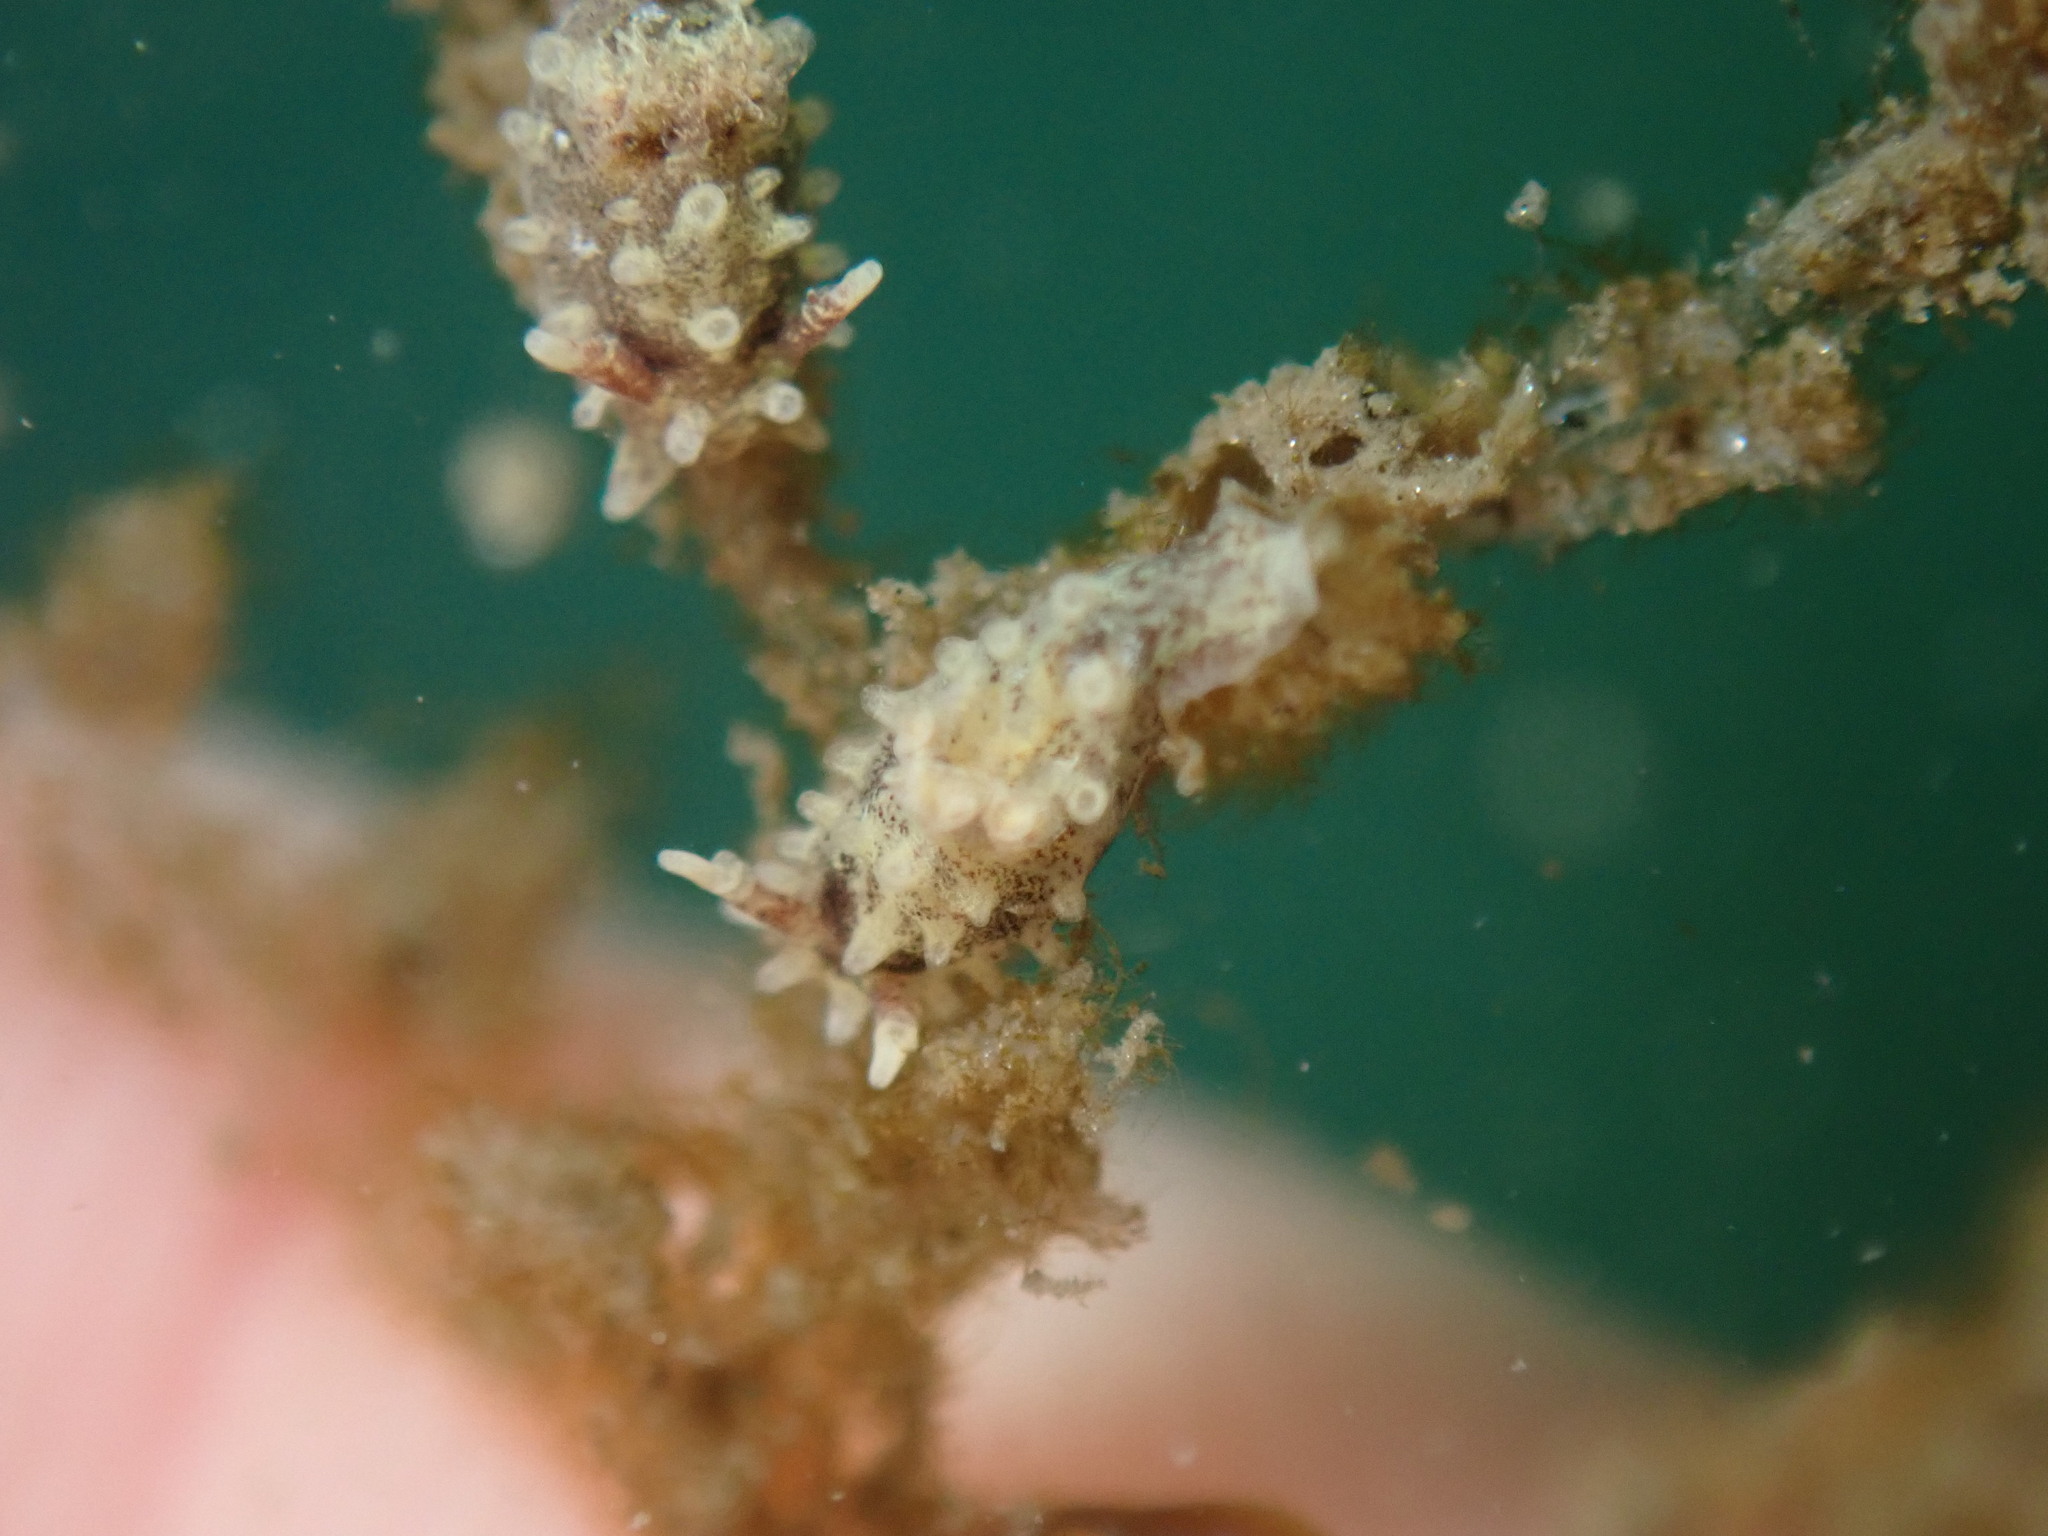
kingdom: Animalia
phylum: Mollusca
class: Gastropoda
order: Nudibranchia
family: Goniodorididae
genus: Okenia
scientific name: Okenia
